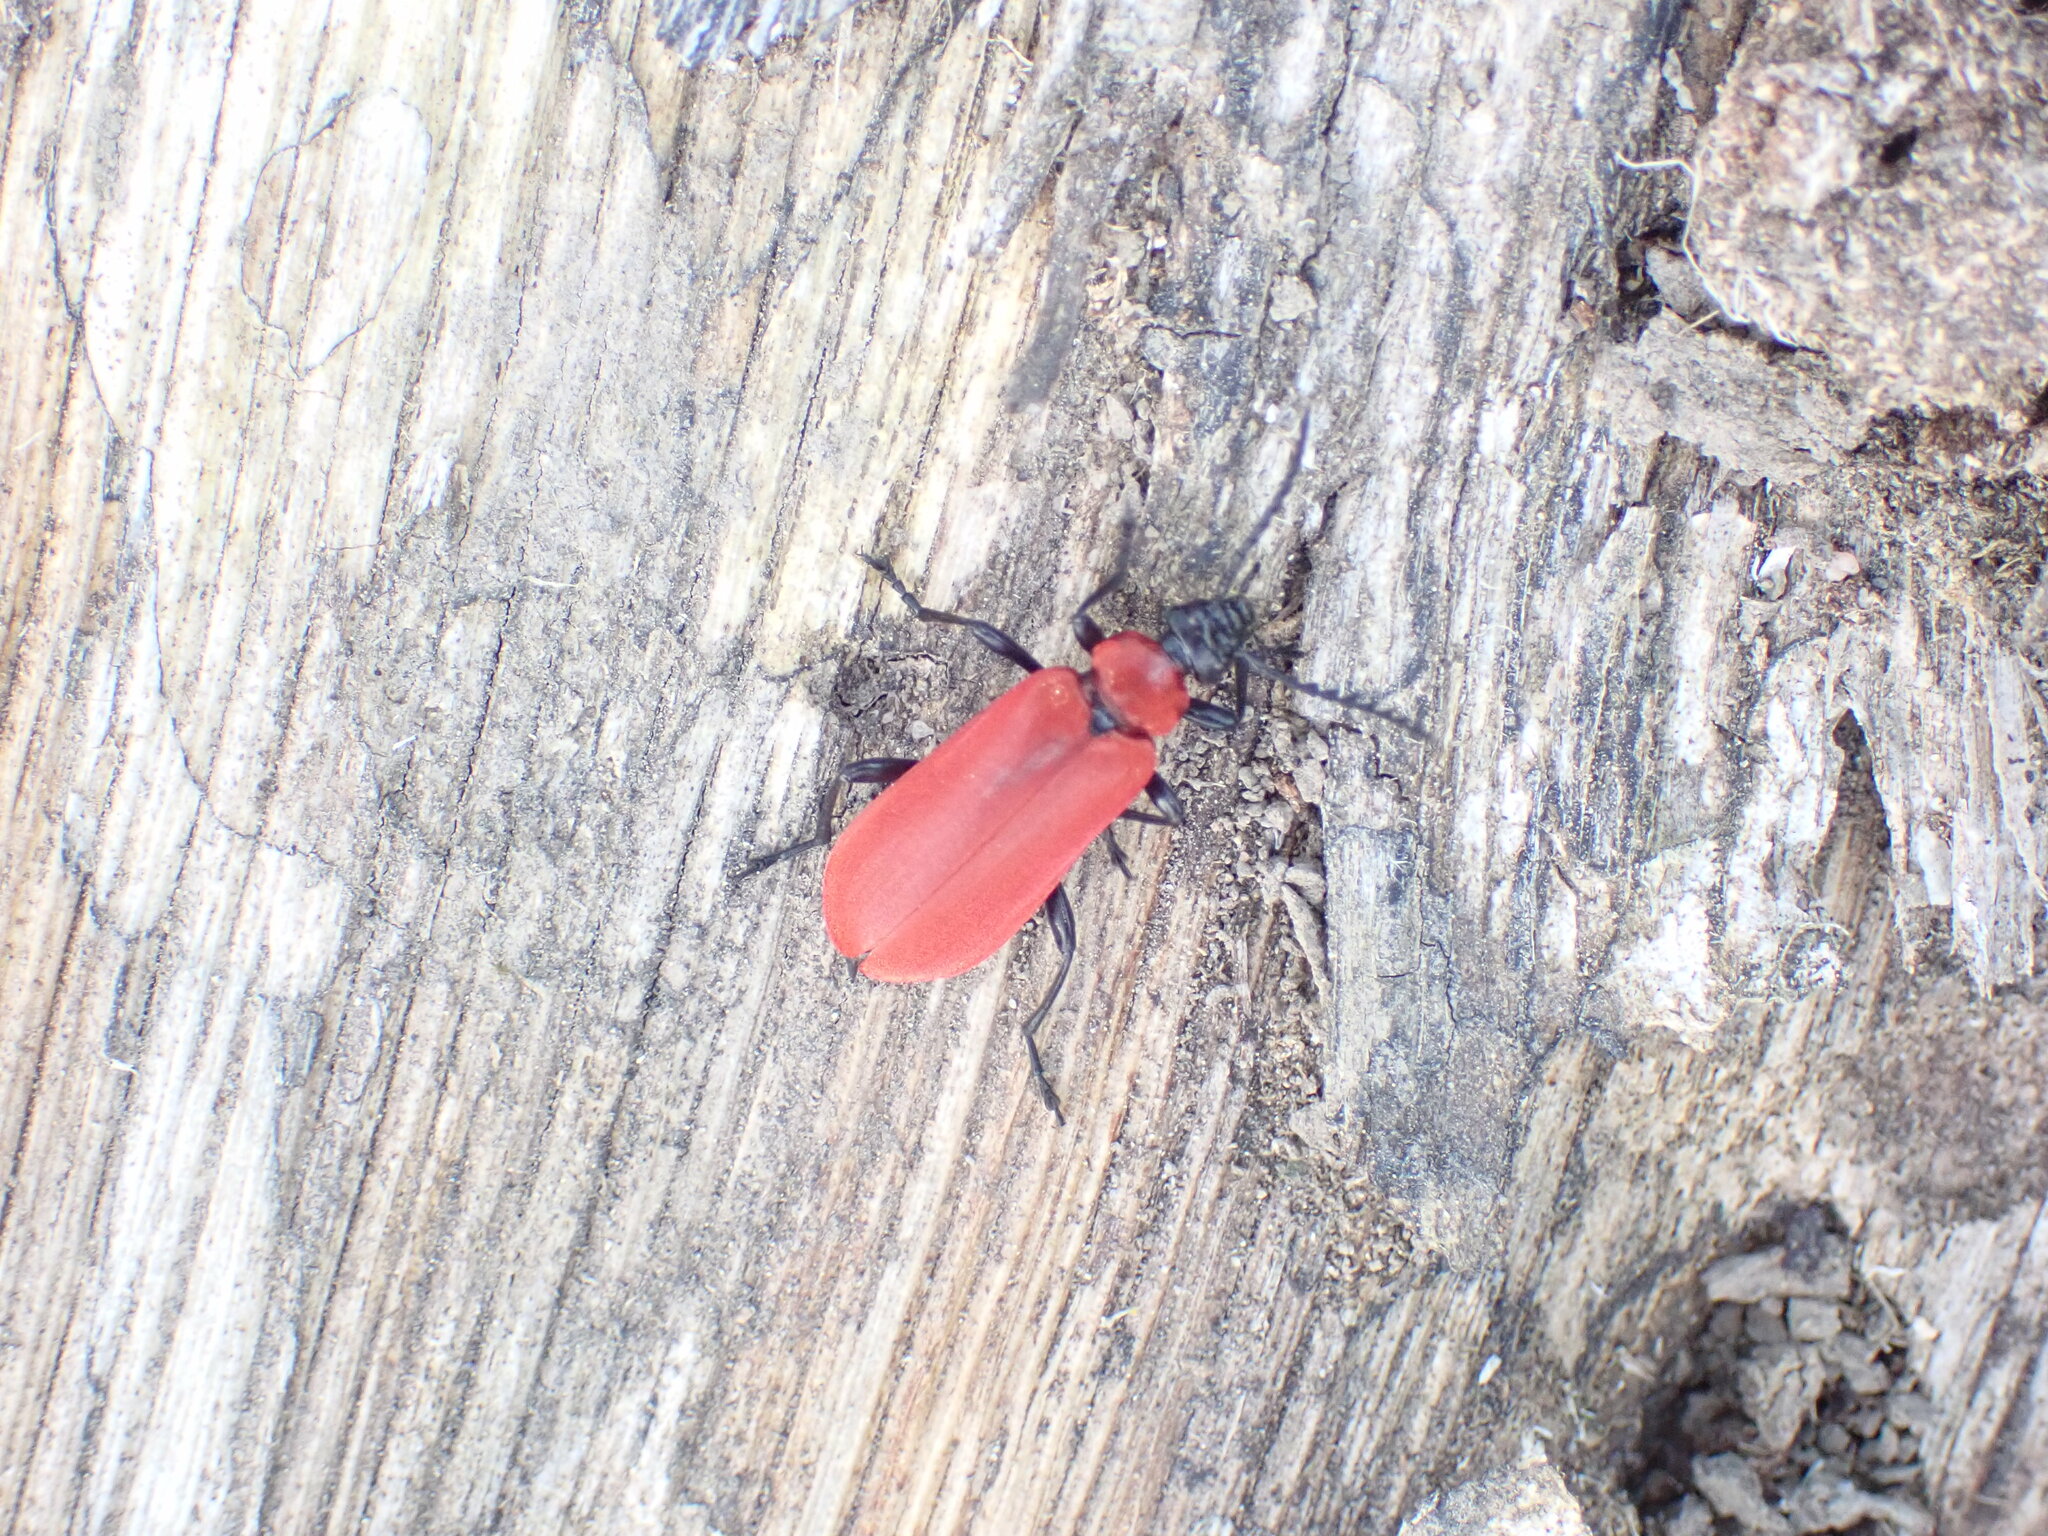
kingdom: Animalia
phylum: Arthropoda
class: Insecta
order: Coleoptera
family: Pyrochroidae
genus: Pyrochroa
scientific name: Pyrochroa coccinea
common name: Black-headed cardinal beetle
